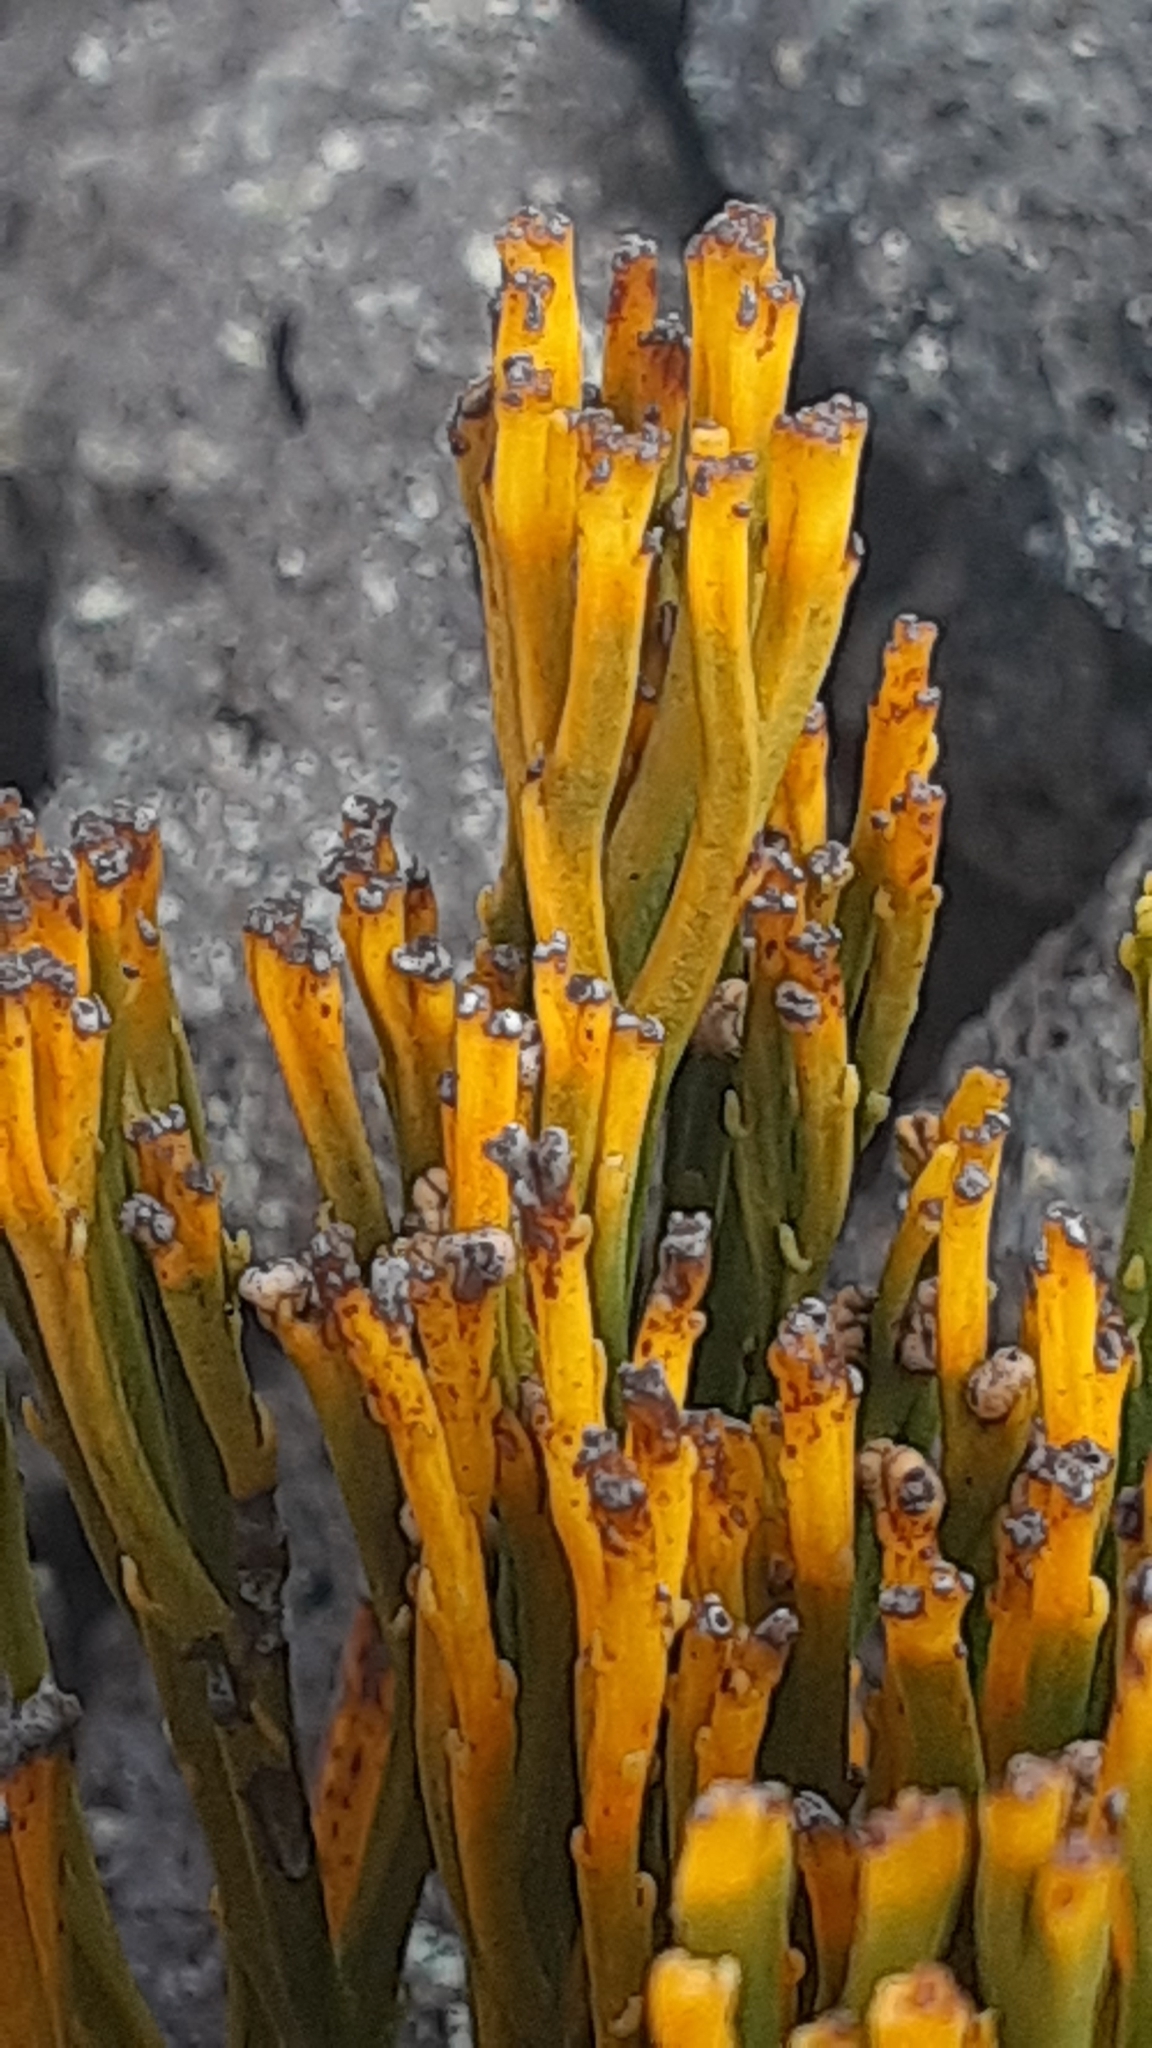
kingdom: Plantae
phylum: Tracheophyta
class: Polypodiopsida
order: Psilotales
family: Psilotaceae
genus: Psilotum
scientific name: Psilotum nudum
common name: Skeleton fork fern
